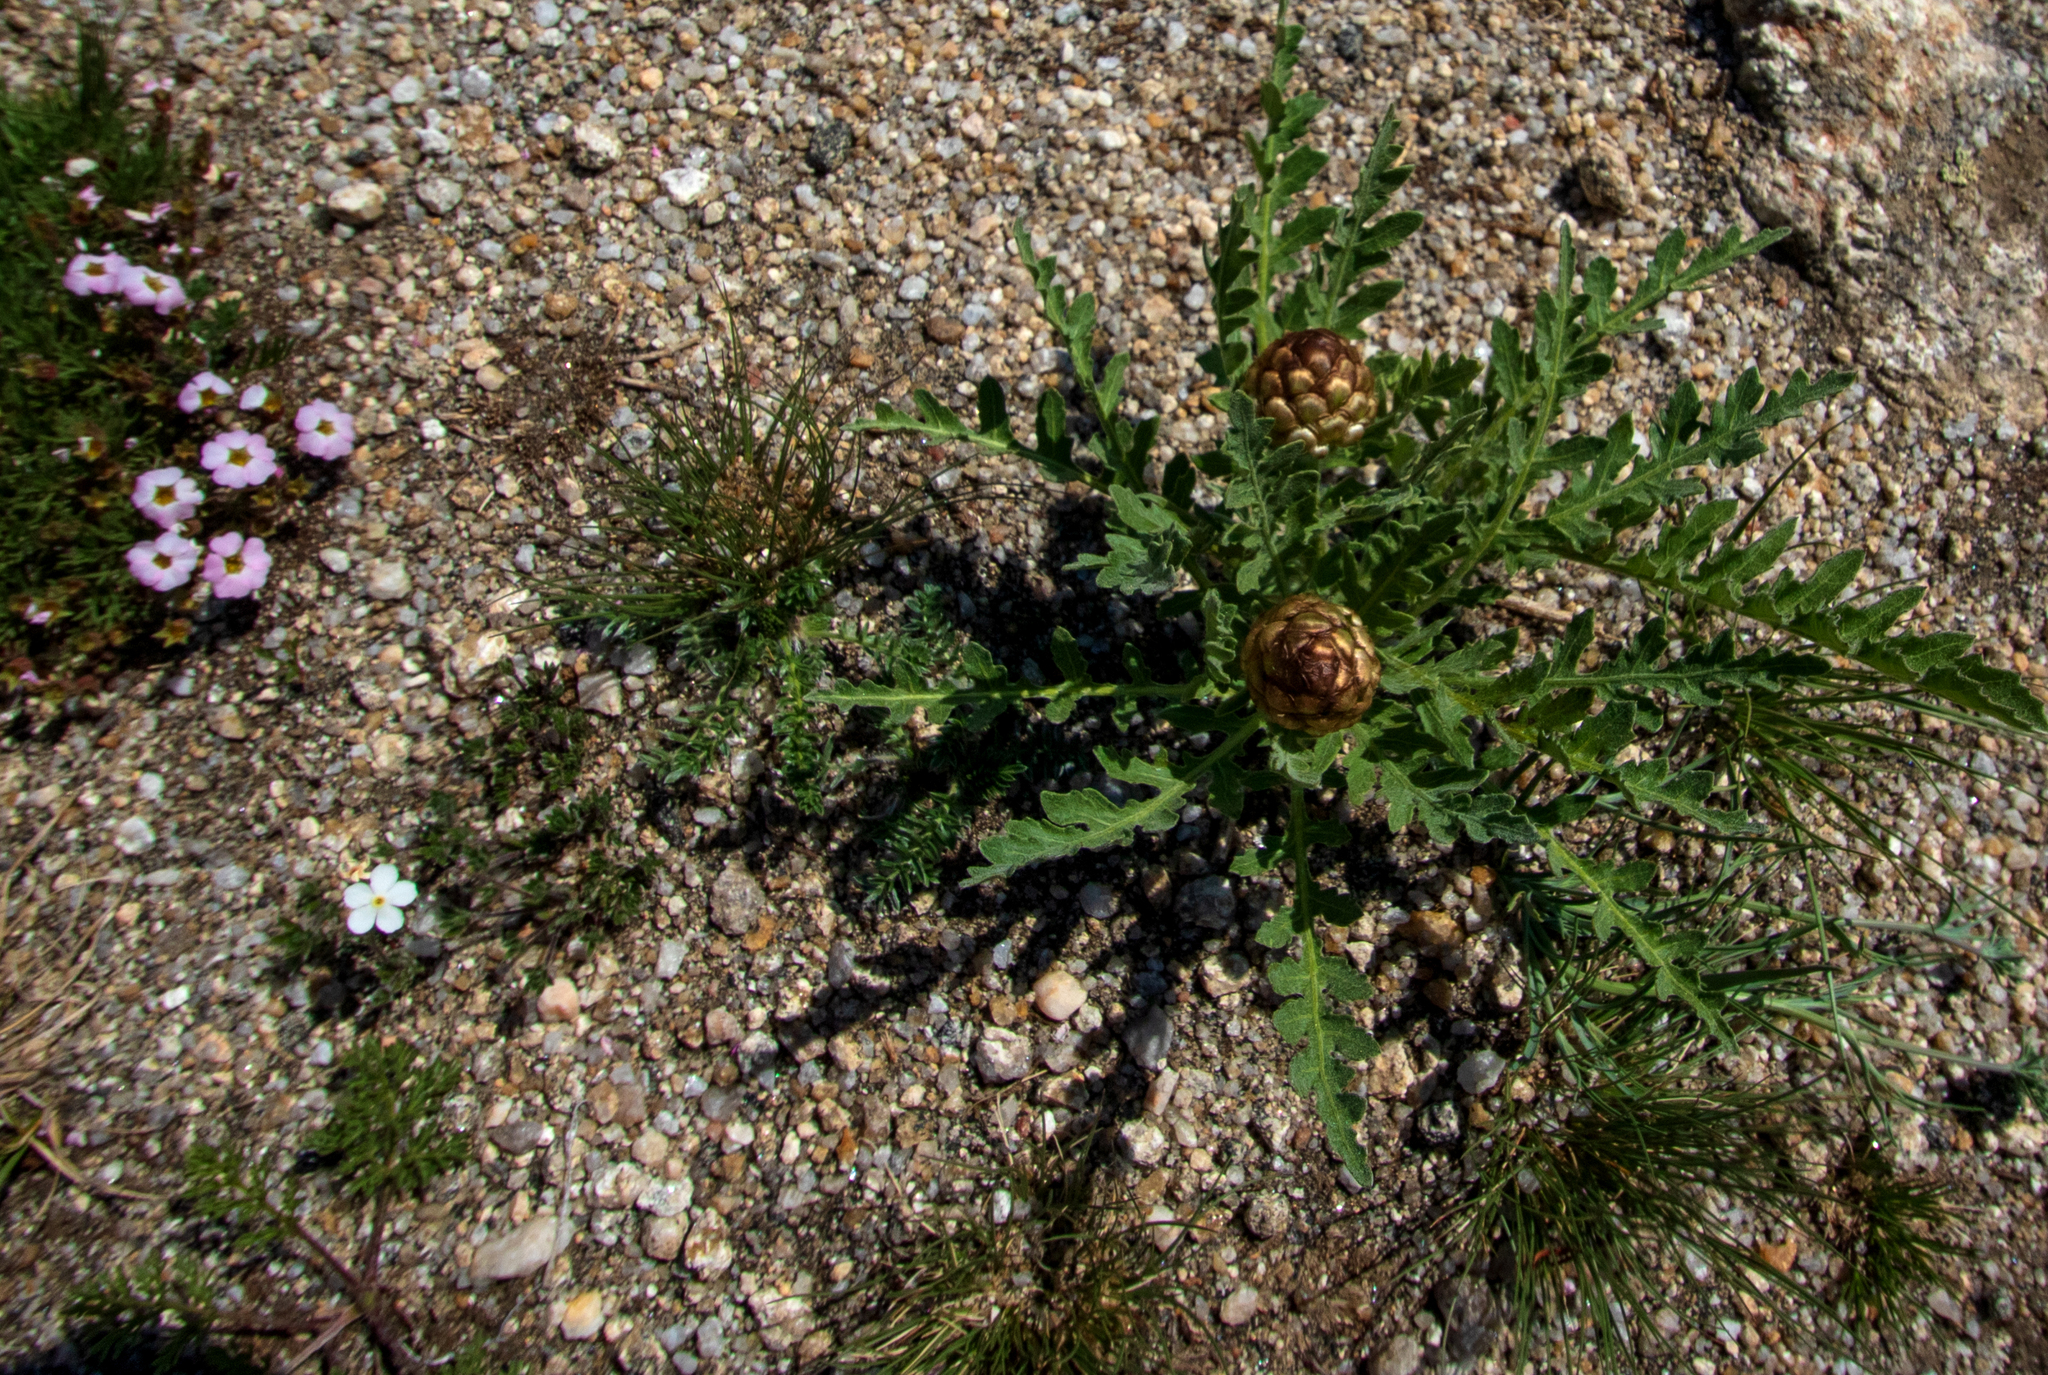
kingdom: Plantae
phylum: Tracheophyta
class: Magnoliopsida
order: Asterales
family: Asteraceae
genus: Leuzea
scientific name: Leuzea uniflora
